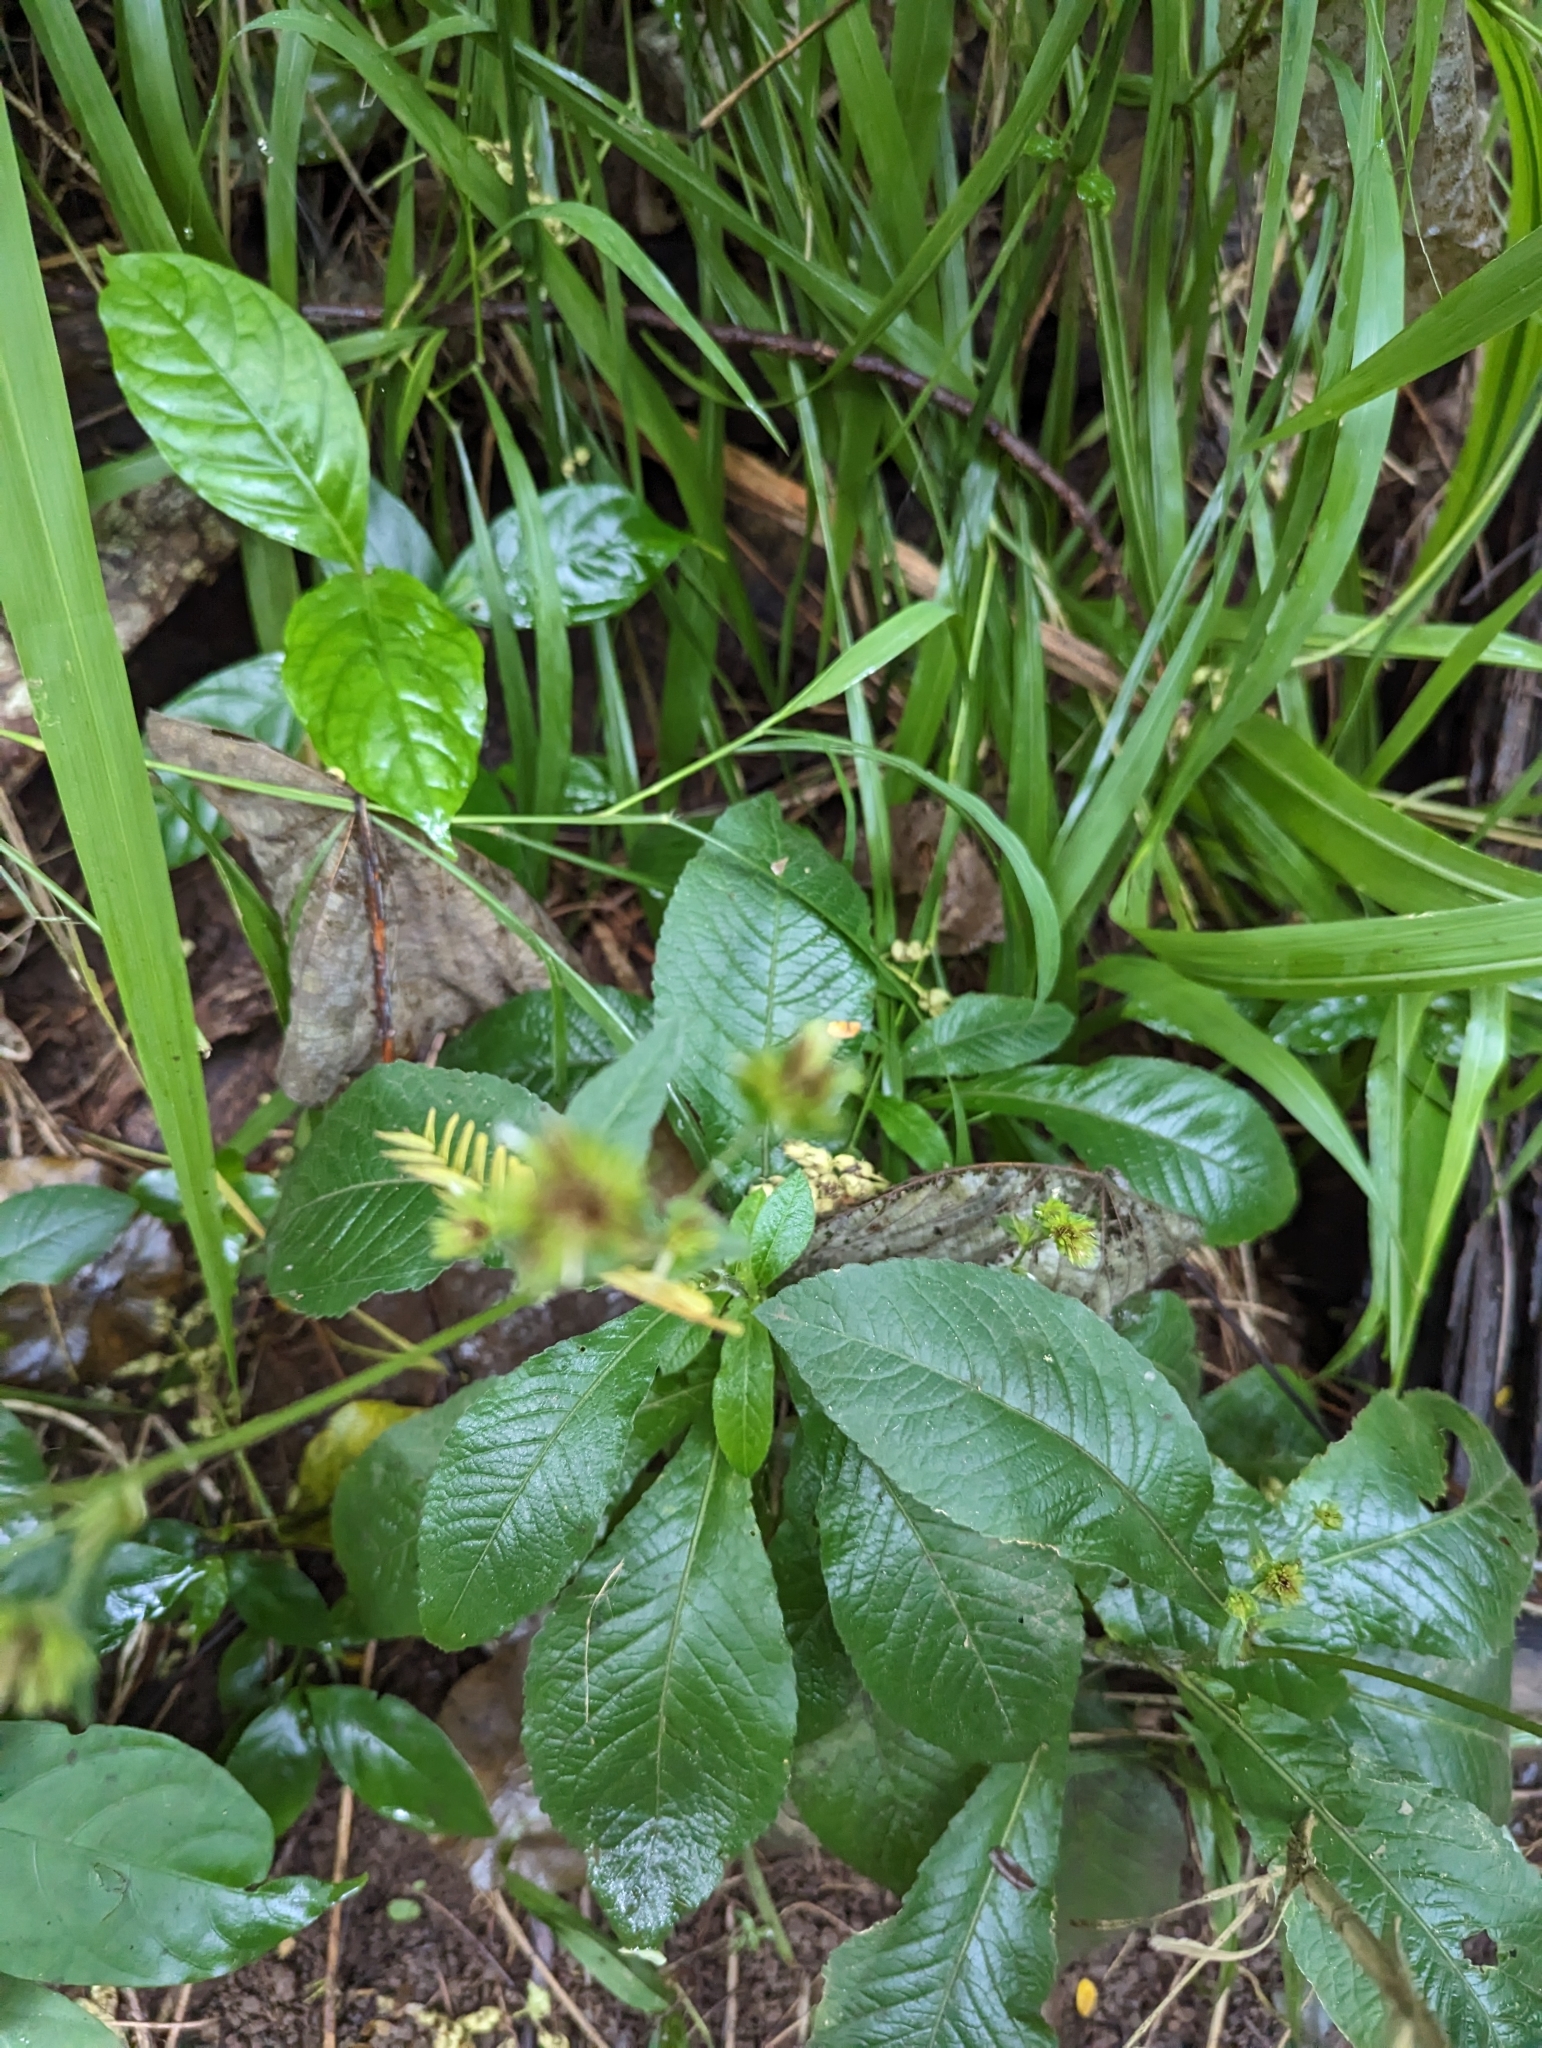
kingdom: Plantae
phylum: Tracheophyta
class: Magnoliopsida
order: Asterales
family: Asteraceae
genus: Elephantopus
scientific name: Elephantopus mollis
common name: Soft elephantsfoot
